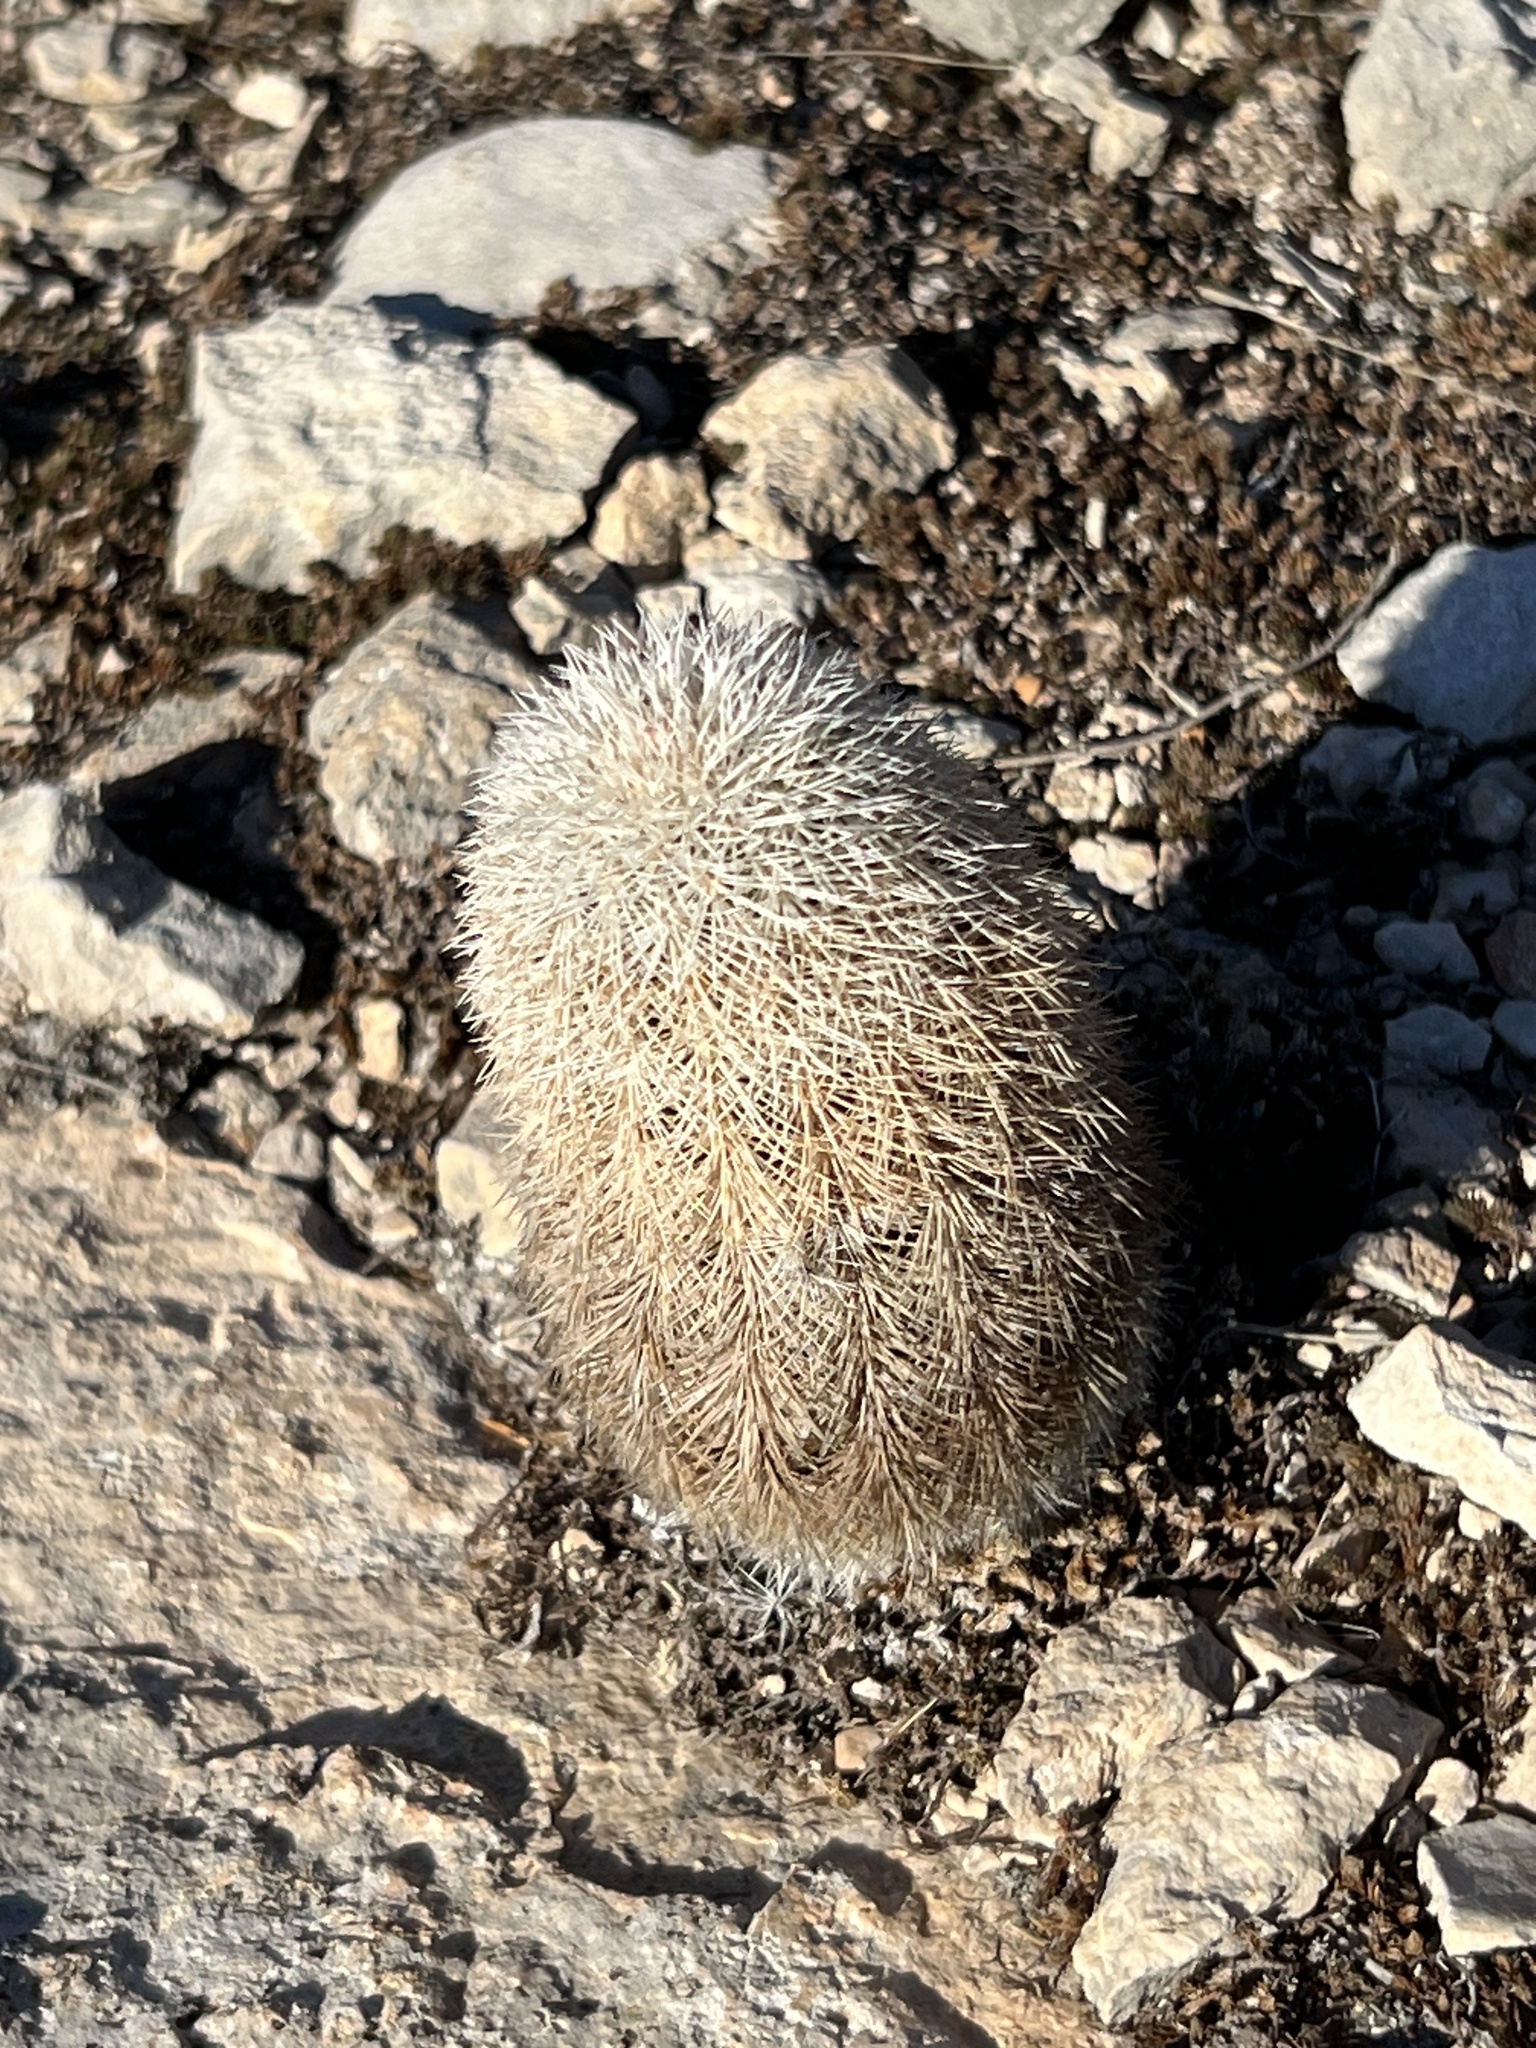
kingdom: Plantae
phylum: Tracheophyta
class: Magnoliopsida
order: Caryophyllales
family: Cactaceae
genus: Echinocereus
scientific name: Echinocereus dasyacanthus
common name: Spiny hedgehog cactus
